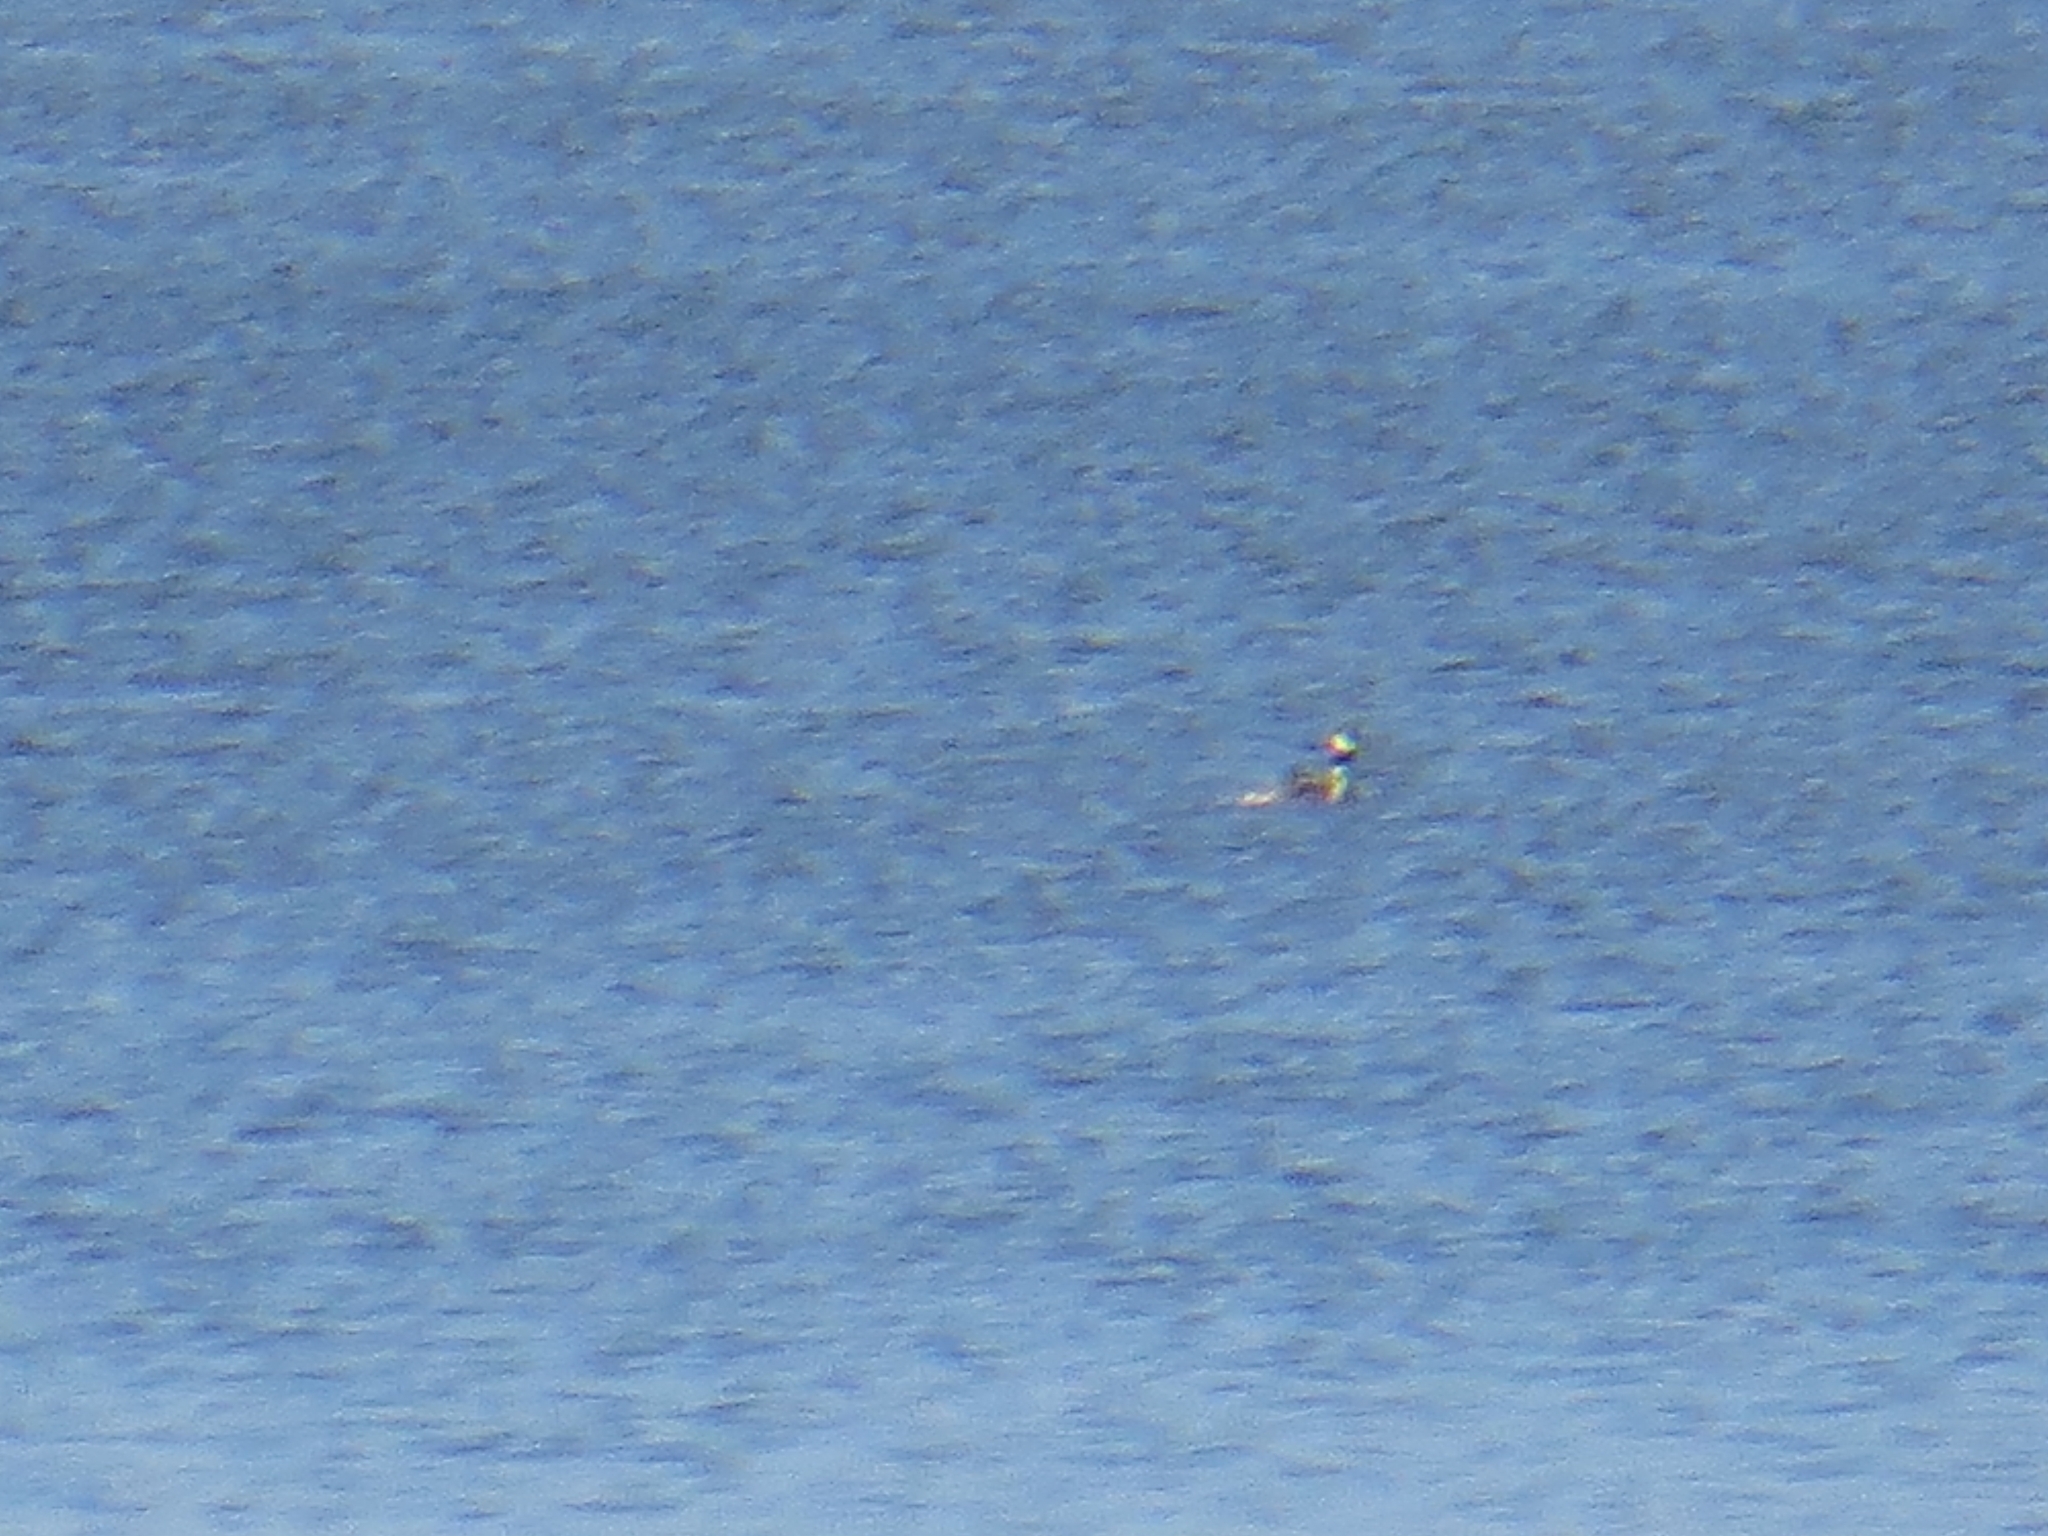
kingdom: Animalia
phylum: Chordata
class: Aves
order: Podicipediformes
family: Podicipedidae
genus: Podiceps
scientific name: Podiceps cristatus
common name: Great crested grebe
